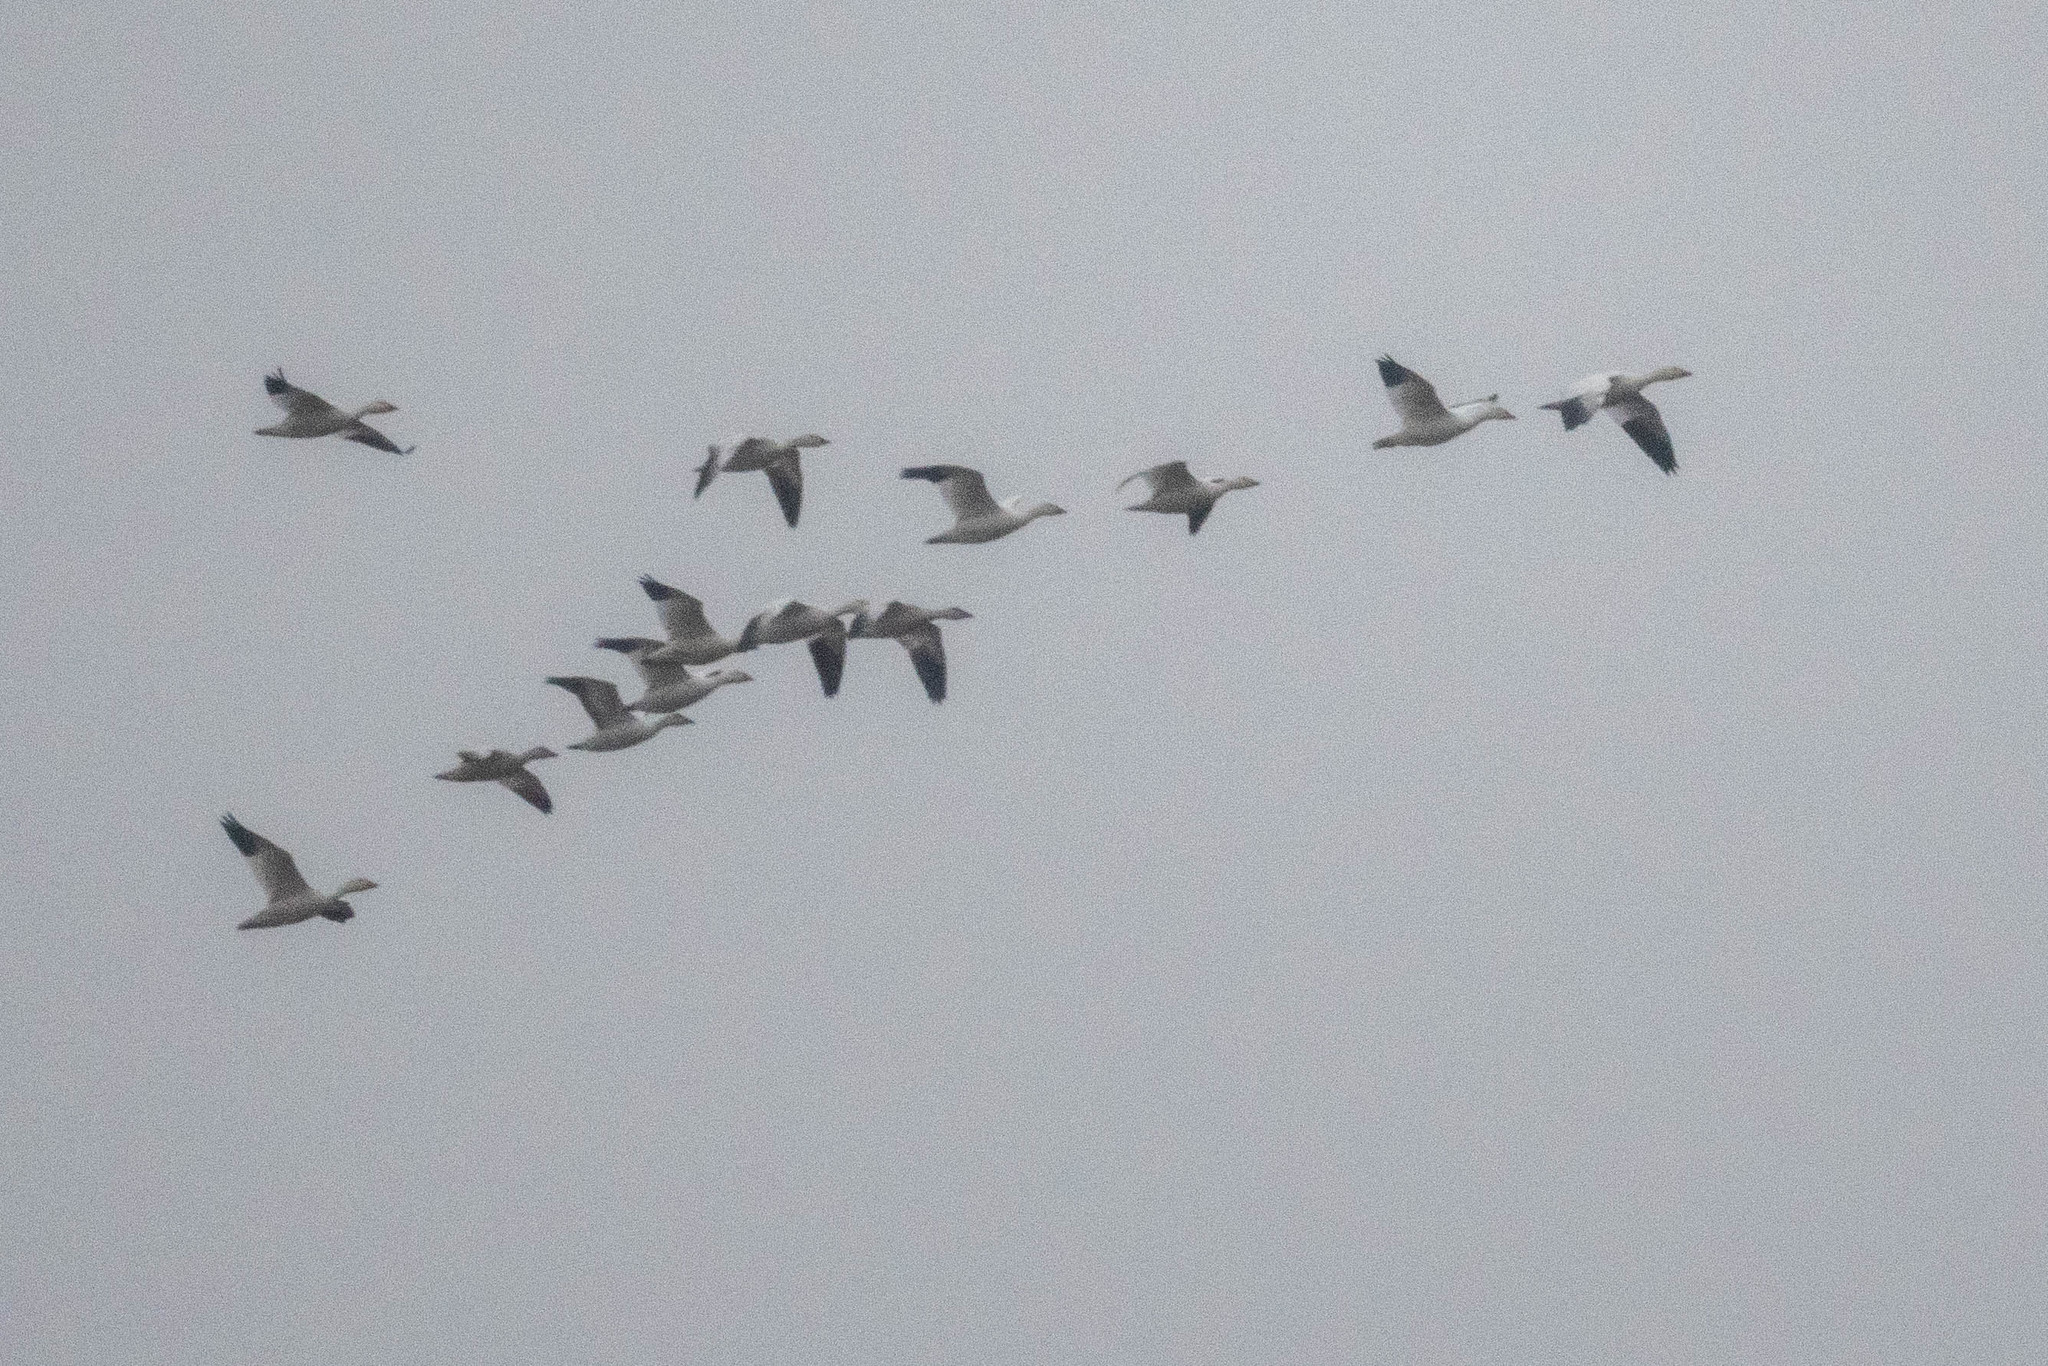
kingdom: Animalia
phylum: Chordata
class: Aves
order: Anseriformes
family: Anatidae
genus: Anser
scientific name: Anser caerulescens
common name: Snow goose
